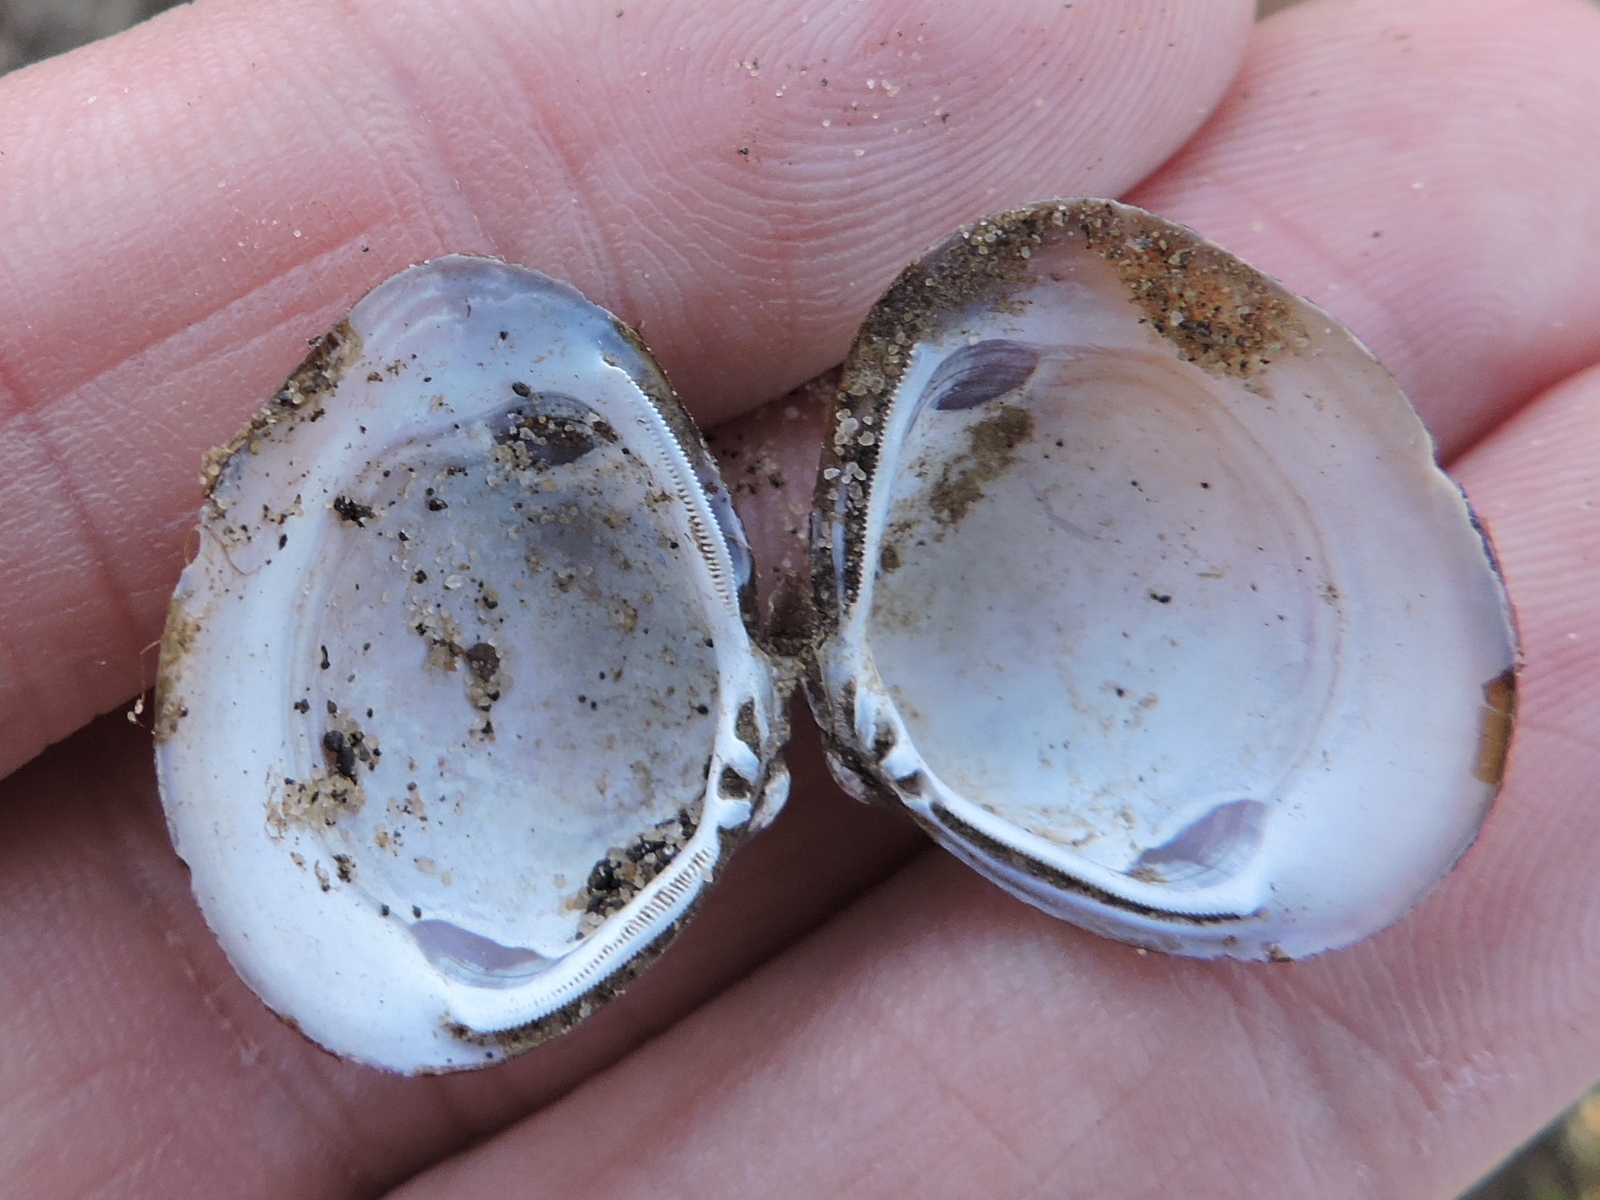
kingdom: Animalia
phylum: Mollusca
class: Bivalvia
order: Venerida
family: Cyrenidae
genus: Corbicula
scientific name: Corbicula fluminea
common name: Asian clam
